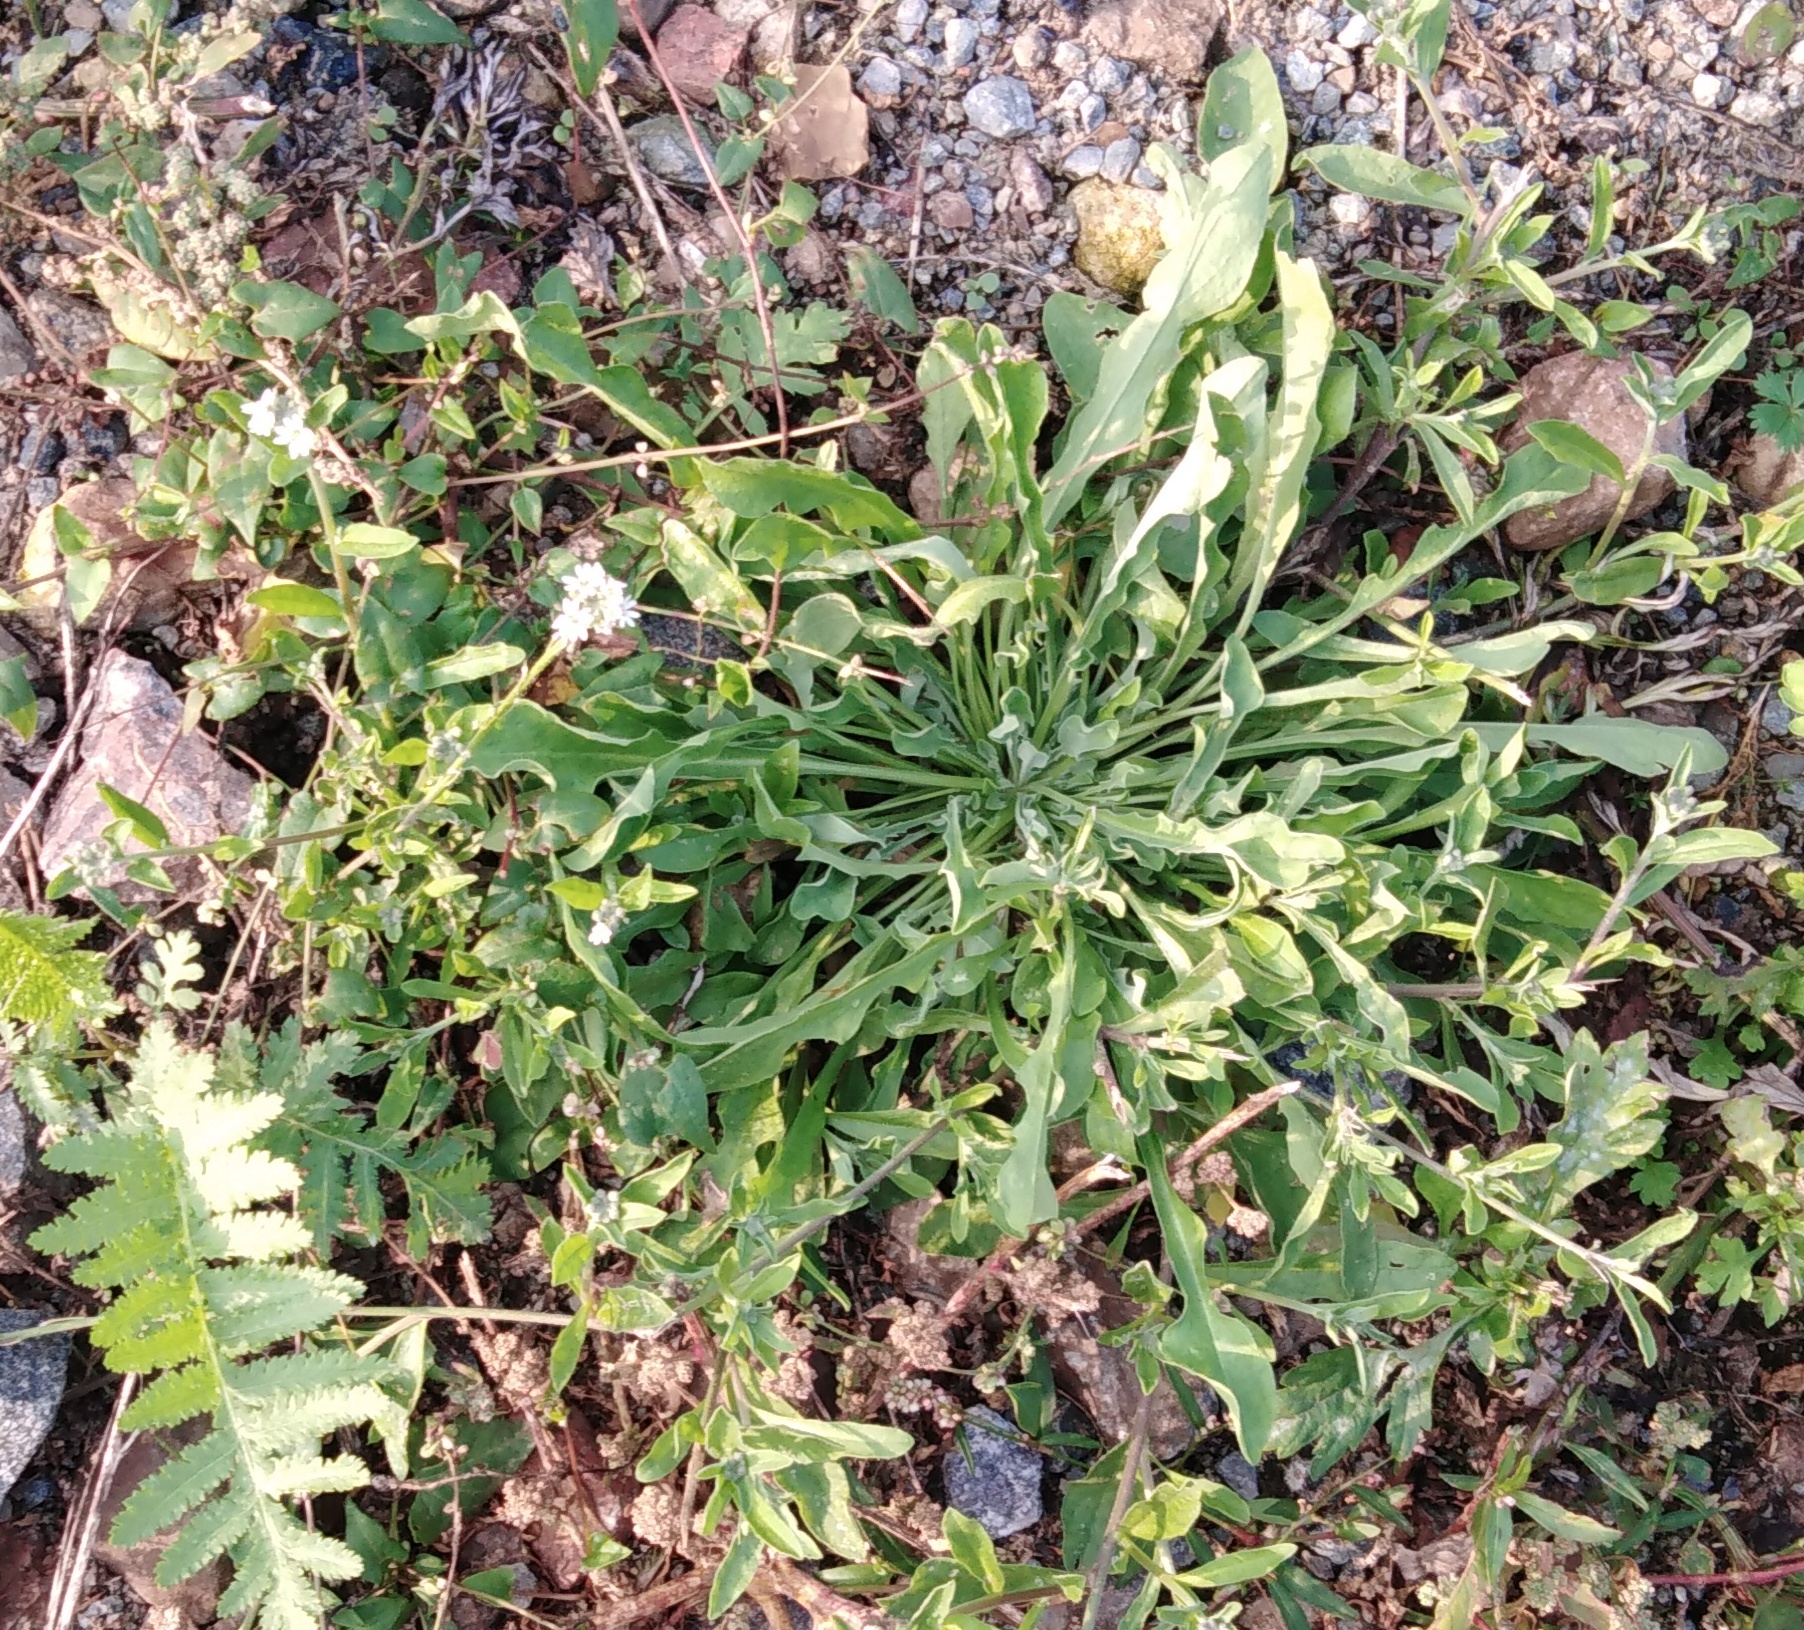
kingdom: Plantae
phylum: Tracheophyta
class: Magnoliopsida
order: Brassicales
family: Brassicaceae
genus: Berteroa
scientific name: Berteroa incana
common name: Hoary alison
